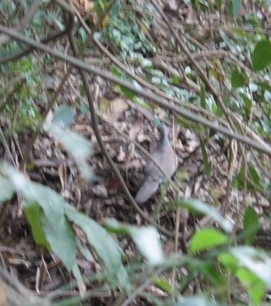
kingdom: Animalia
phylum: Chordata
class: Aves
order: Columbiformes
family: Columbidae
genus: Spilopelia
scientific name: Spilopelia chinensis
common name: Spotted dove
